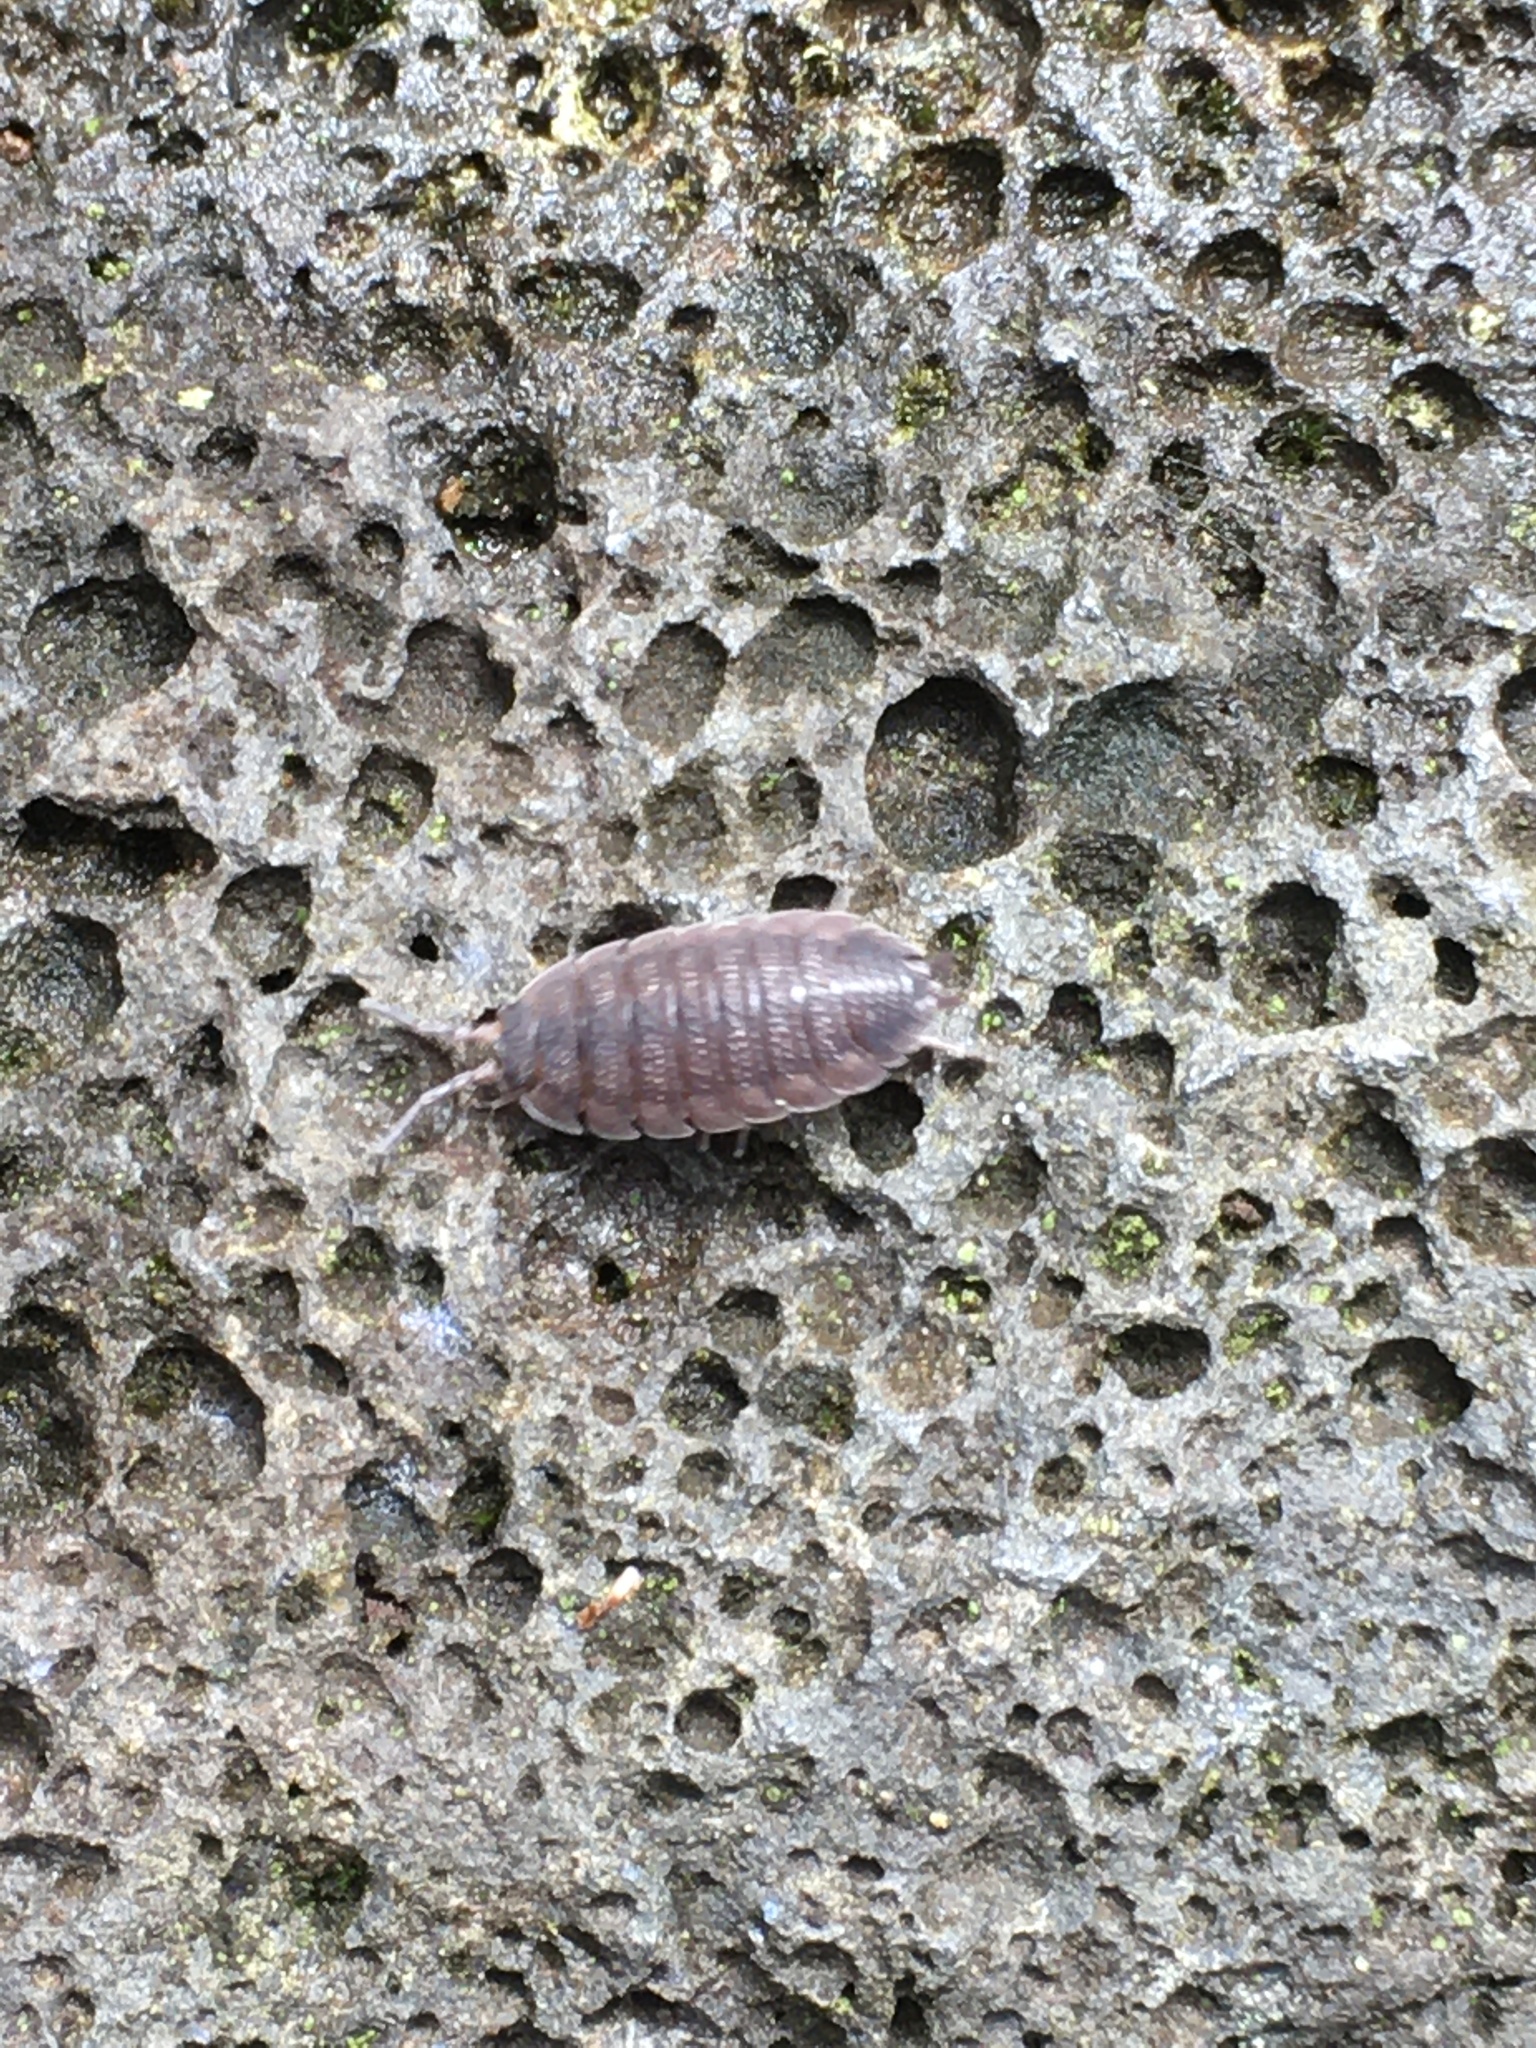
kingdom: Animalia
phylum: Arthropoda
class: Malacostraca
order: Isopoda
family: Porcellionidae
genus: Porcellio
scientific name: Porcellio scaber
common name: Common rough woodlouse
